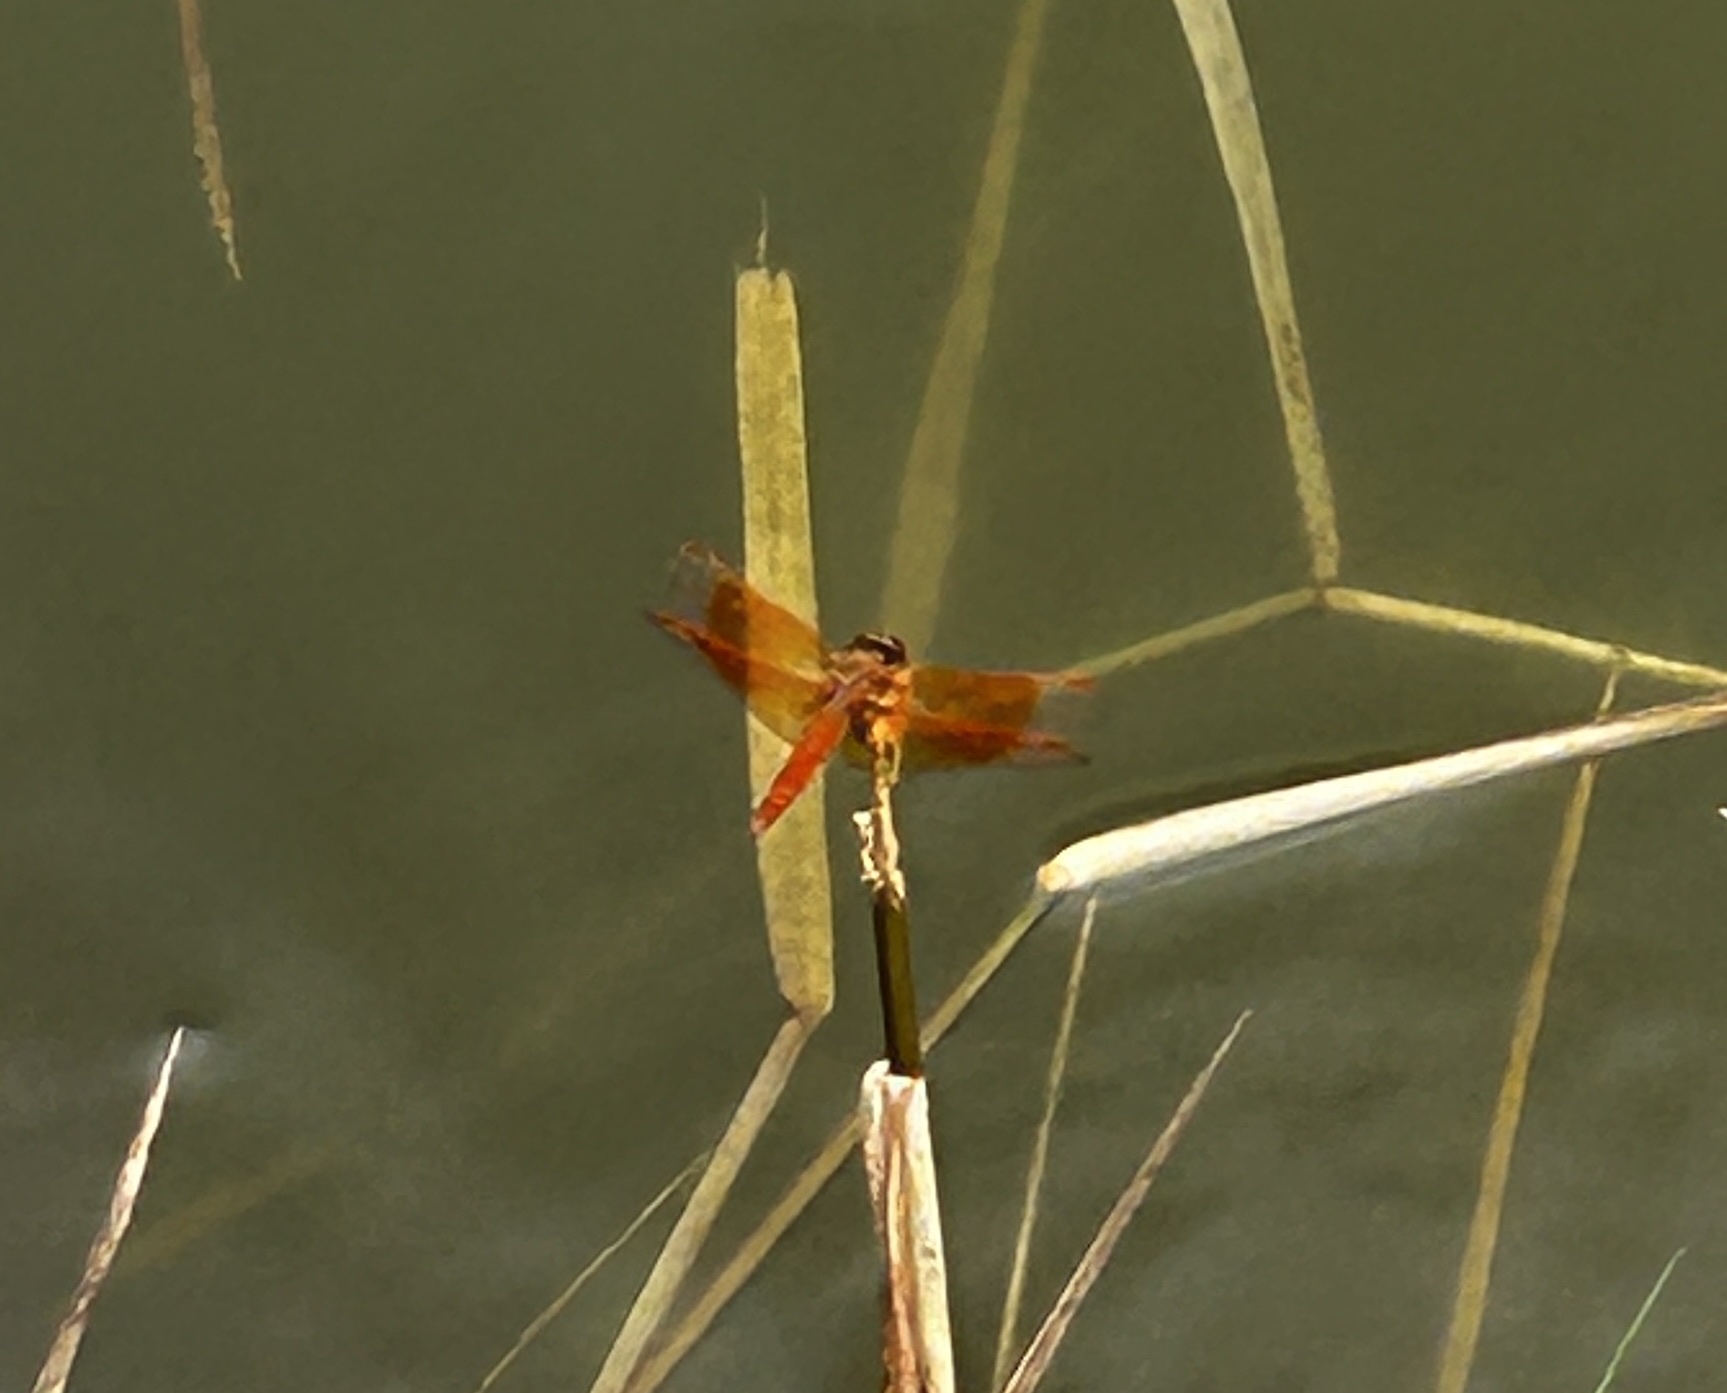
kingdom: Animalia
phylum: Arthropoda
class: Insecta
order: Odonata
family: Libellulidae
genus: Brachythemis
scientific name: Brachythemis contaminata
